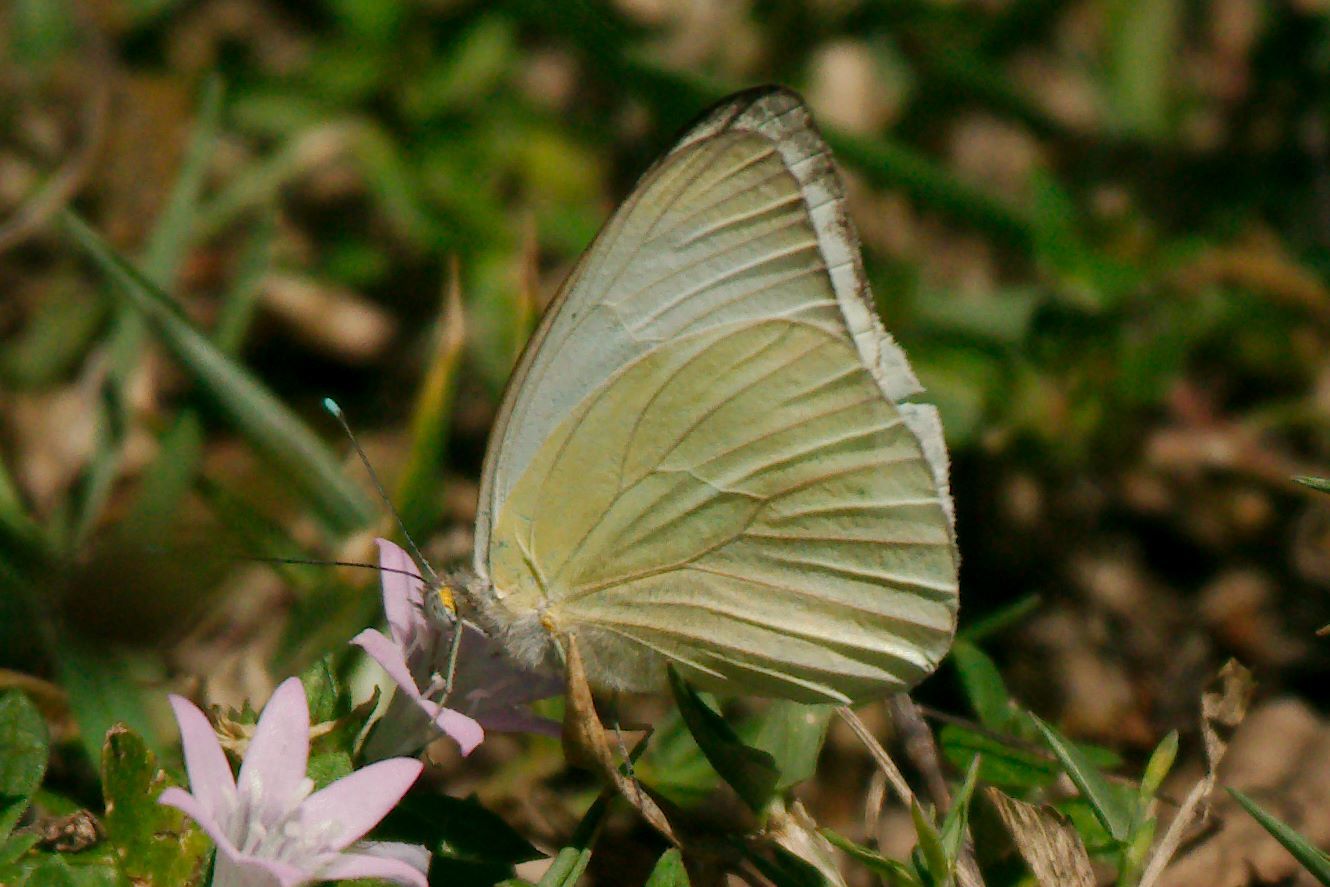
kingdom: Animalia
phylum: Arthropoda
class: Insecta
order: Lepidoptera
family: Pieridae
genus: Ascia
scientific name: Ascia monuste
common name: Great southern white
